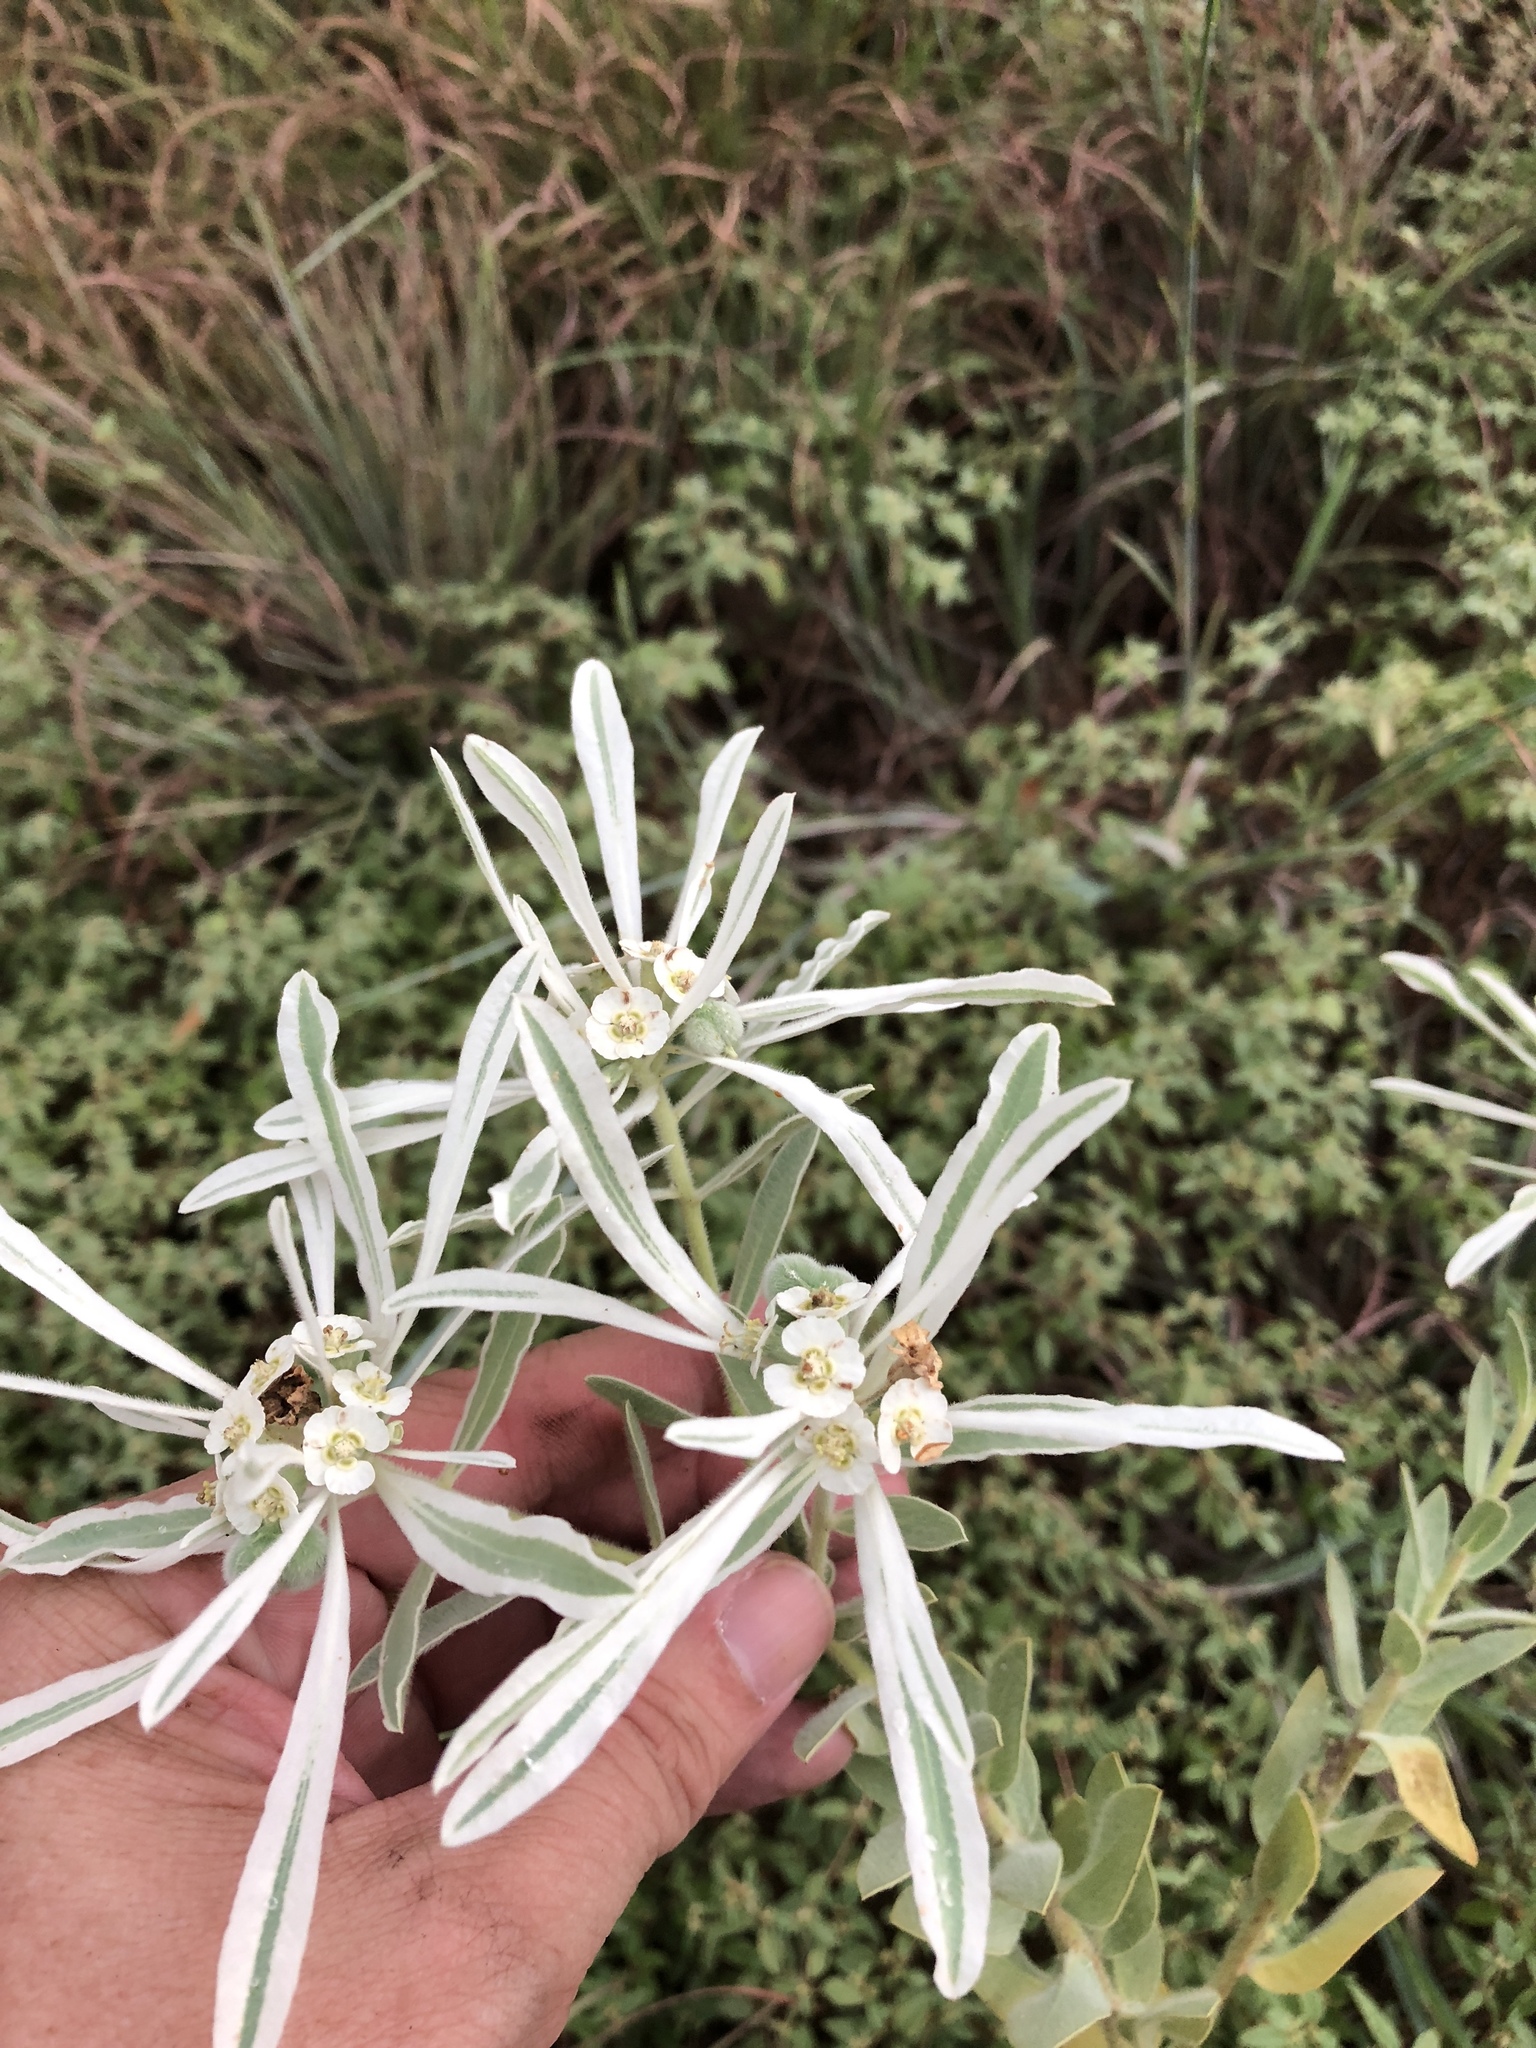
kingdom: Plantae
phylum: Tracheophyta
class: Magnoliopsida
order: Malpighiales
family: Euphorbiaceae
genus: Euphorbia
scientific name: Euphorbia bicolor
